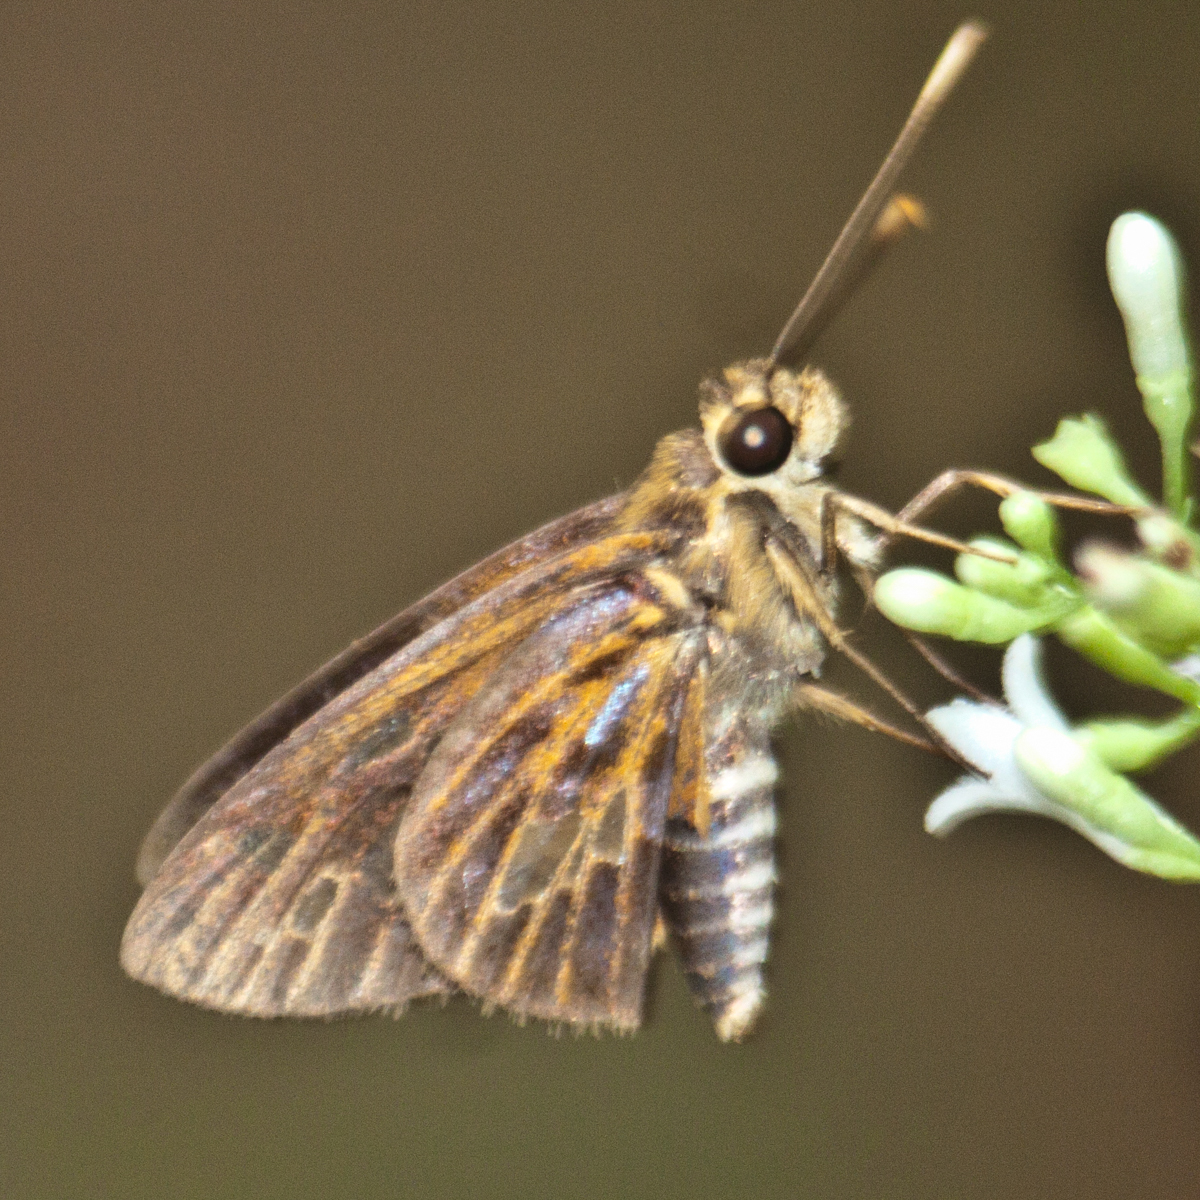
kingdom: Animalia
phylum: Arthropoda
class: Insecta
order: Lepidoptera
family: Hesperiidae
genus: Pyroneura
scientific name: Pyroneura margherita
